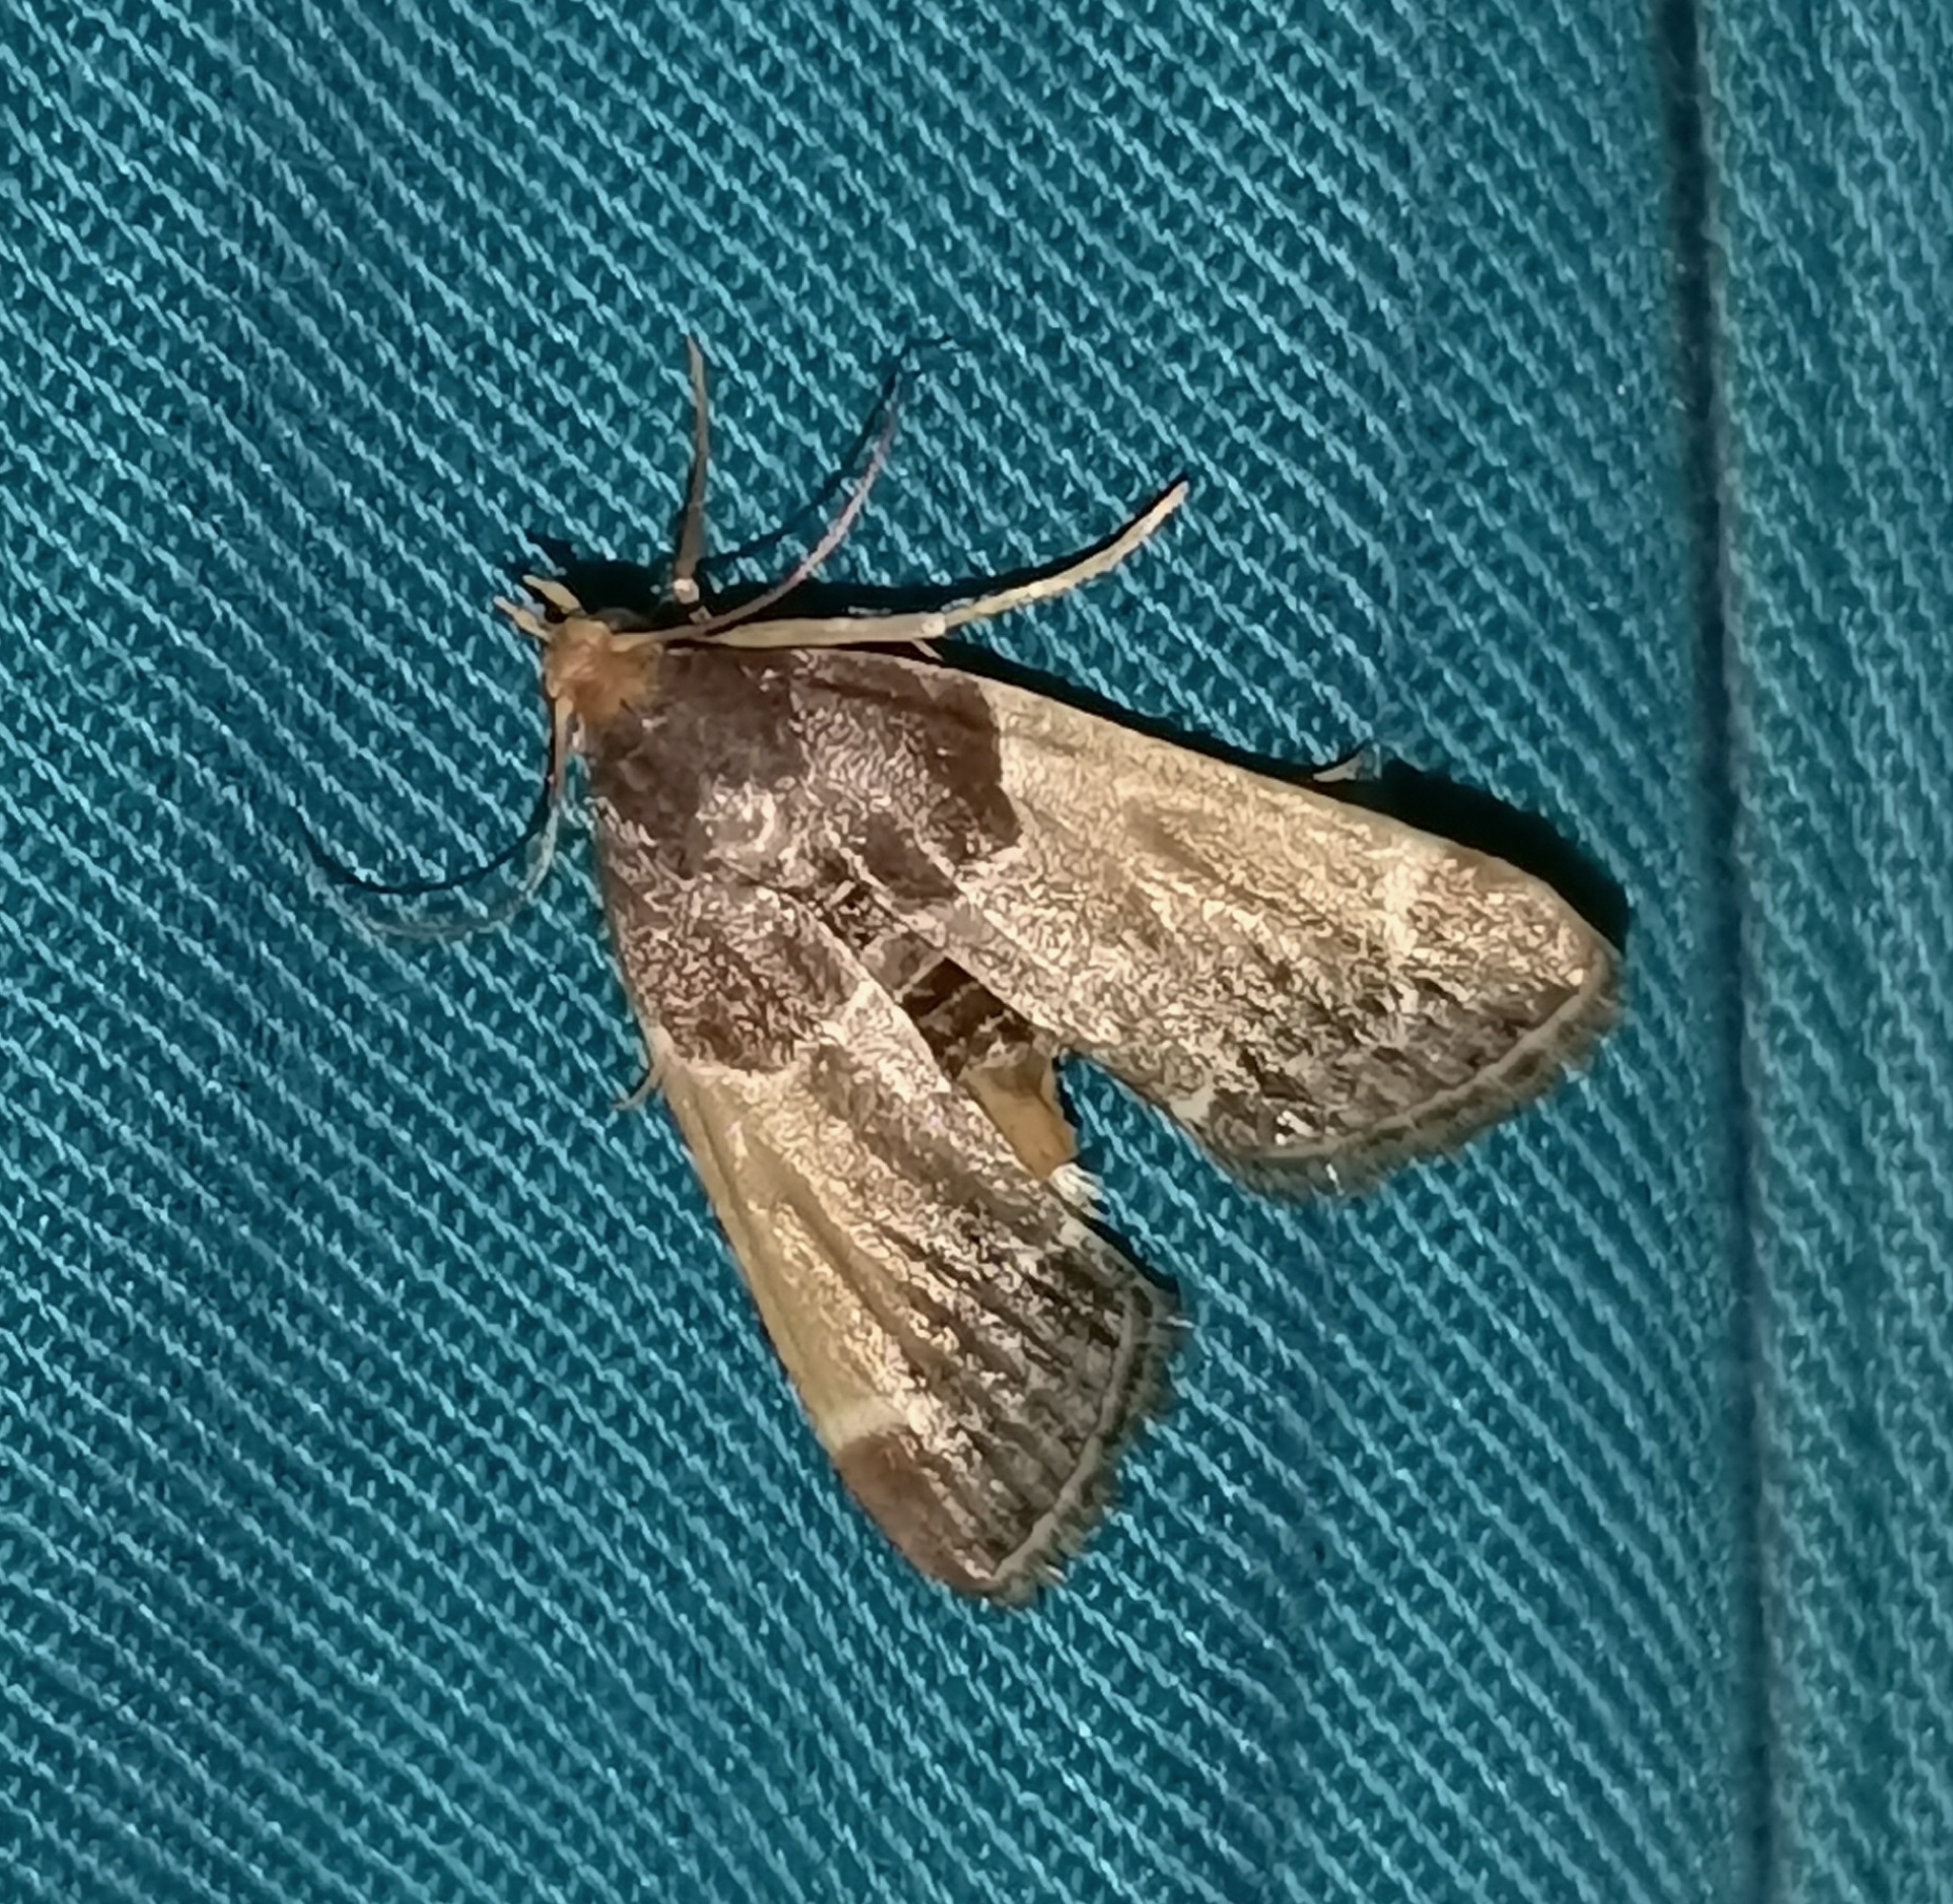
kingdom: Animalia
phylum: Arthropoda
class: Insecta
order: Lepidoptera
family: Pyralidae
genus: Pyralis
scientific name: Pyralis farinalis
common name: Meal moth
